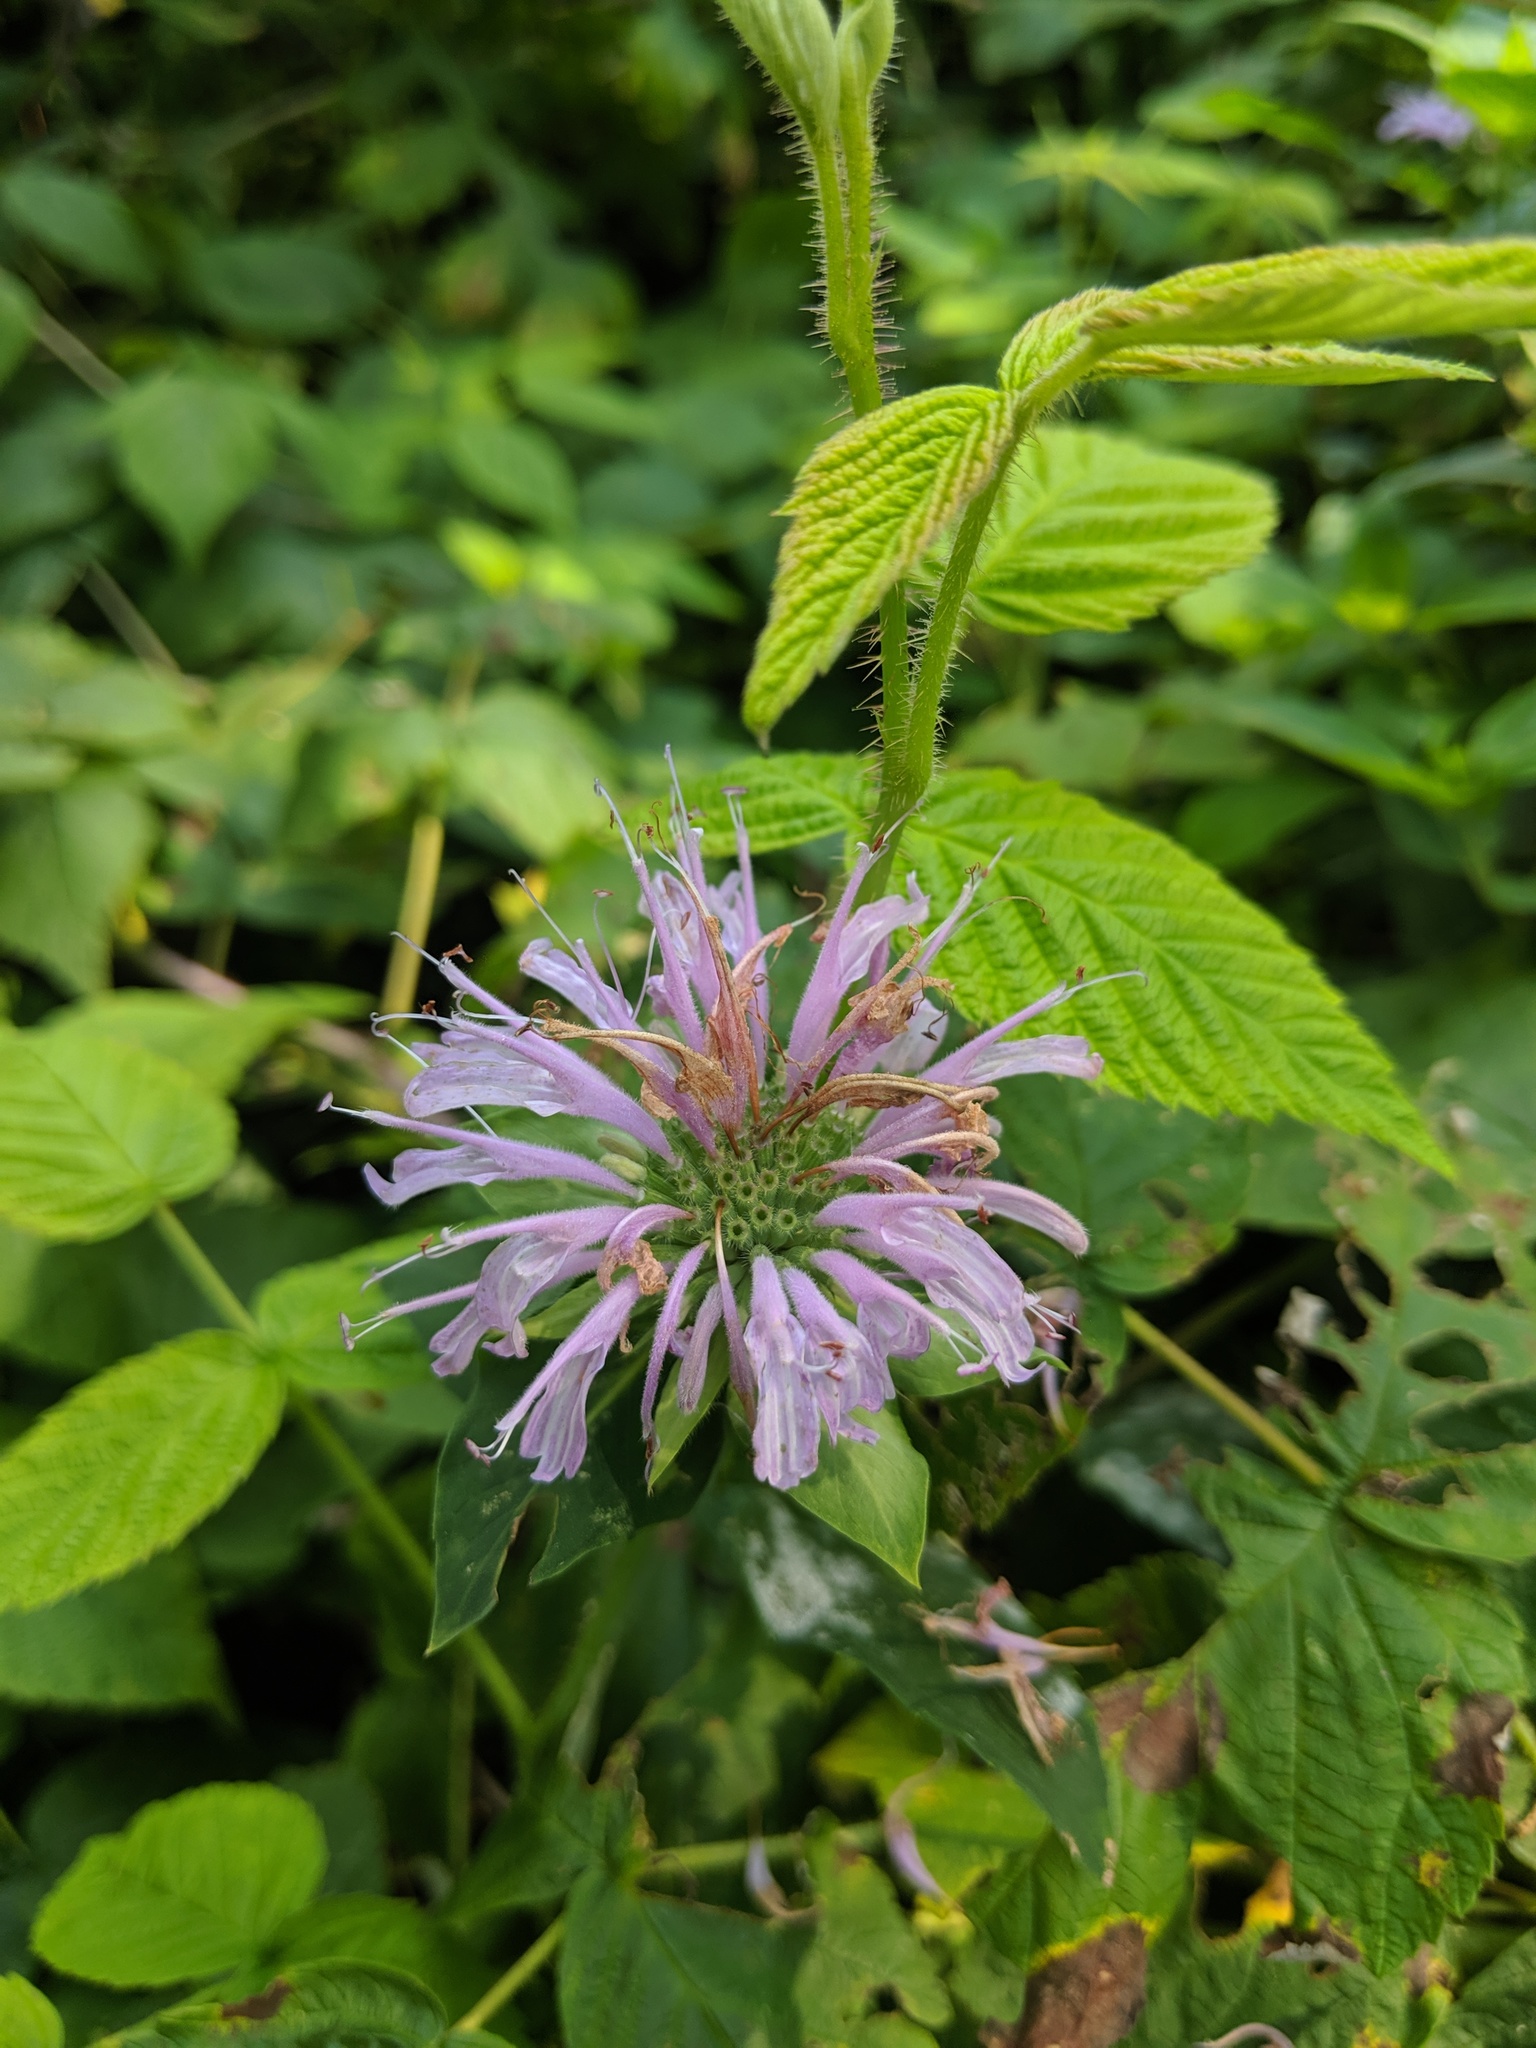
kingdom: Plantae
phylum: Tracheophyta
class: Magnoliopsida
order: Lamiales
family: Lamiaceae
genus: Monarda
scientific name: Monarda fistulosa
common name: Purple beebalm
